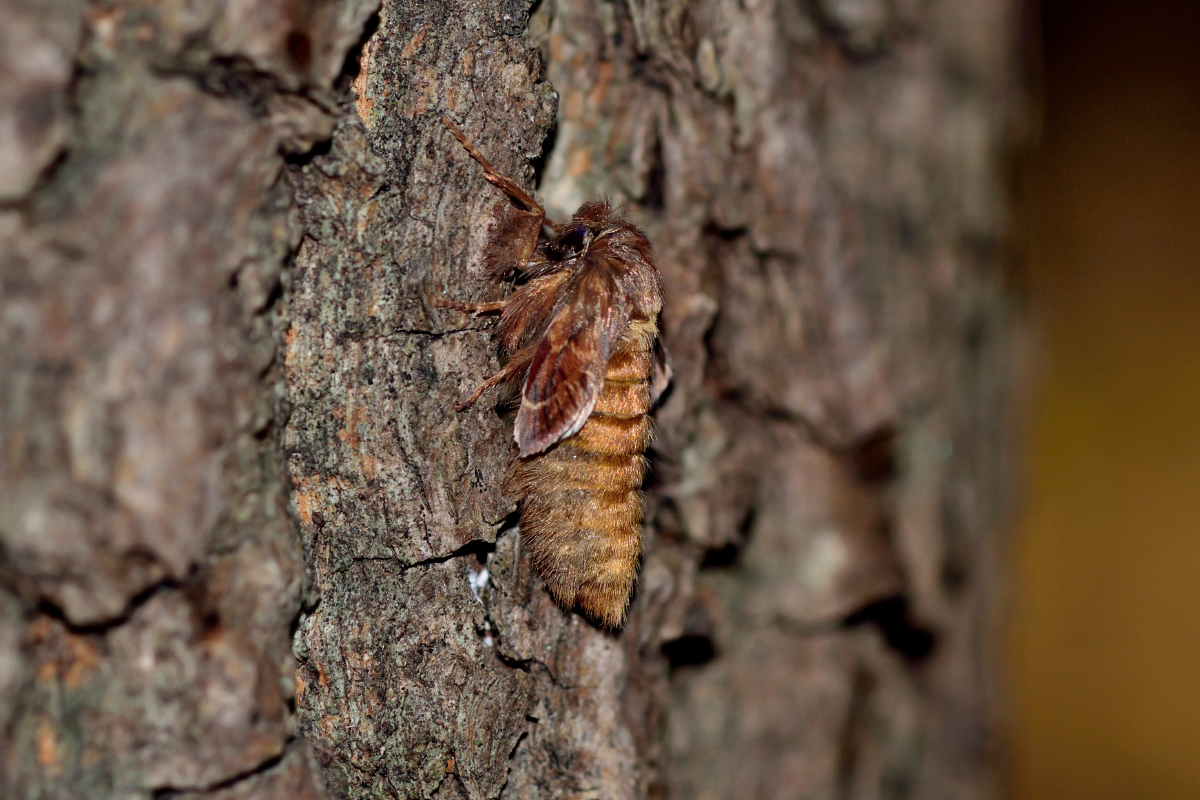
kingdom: Animalia
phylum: Arthropoda
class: Insecta
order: Lepidoptera
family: Notodontidae
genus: Ptilophora
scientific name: Ptilophora plumigera
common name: Plumed prominent
